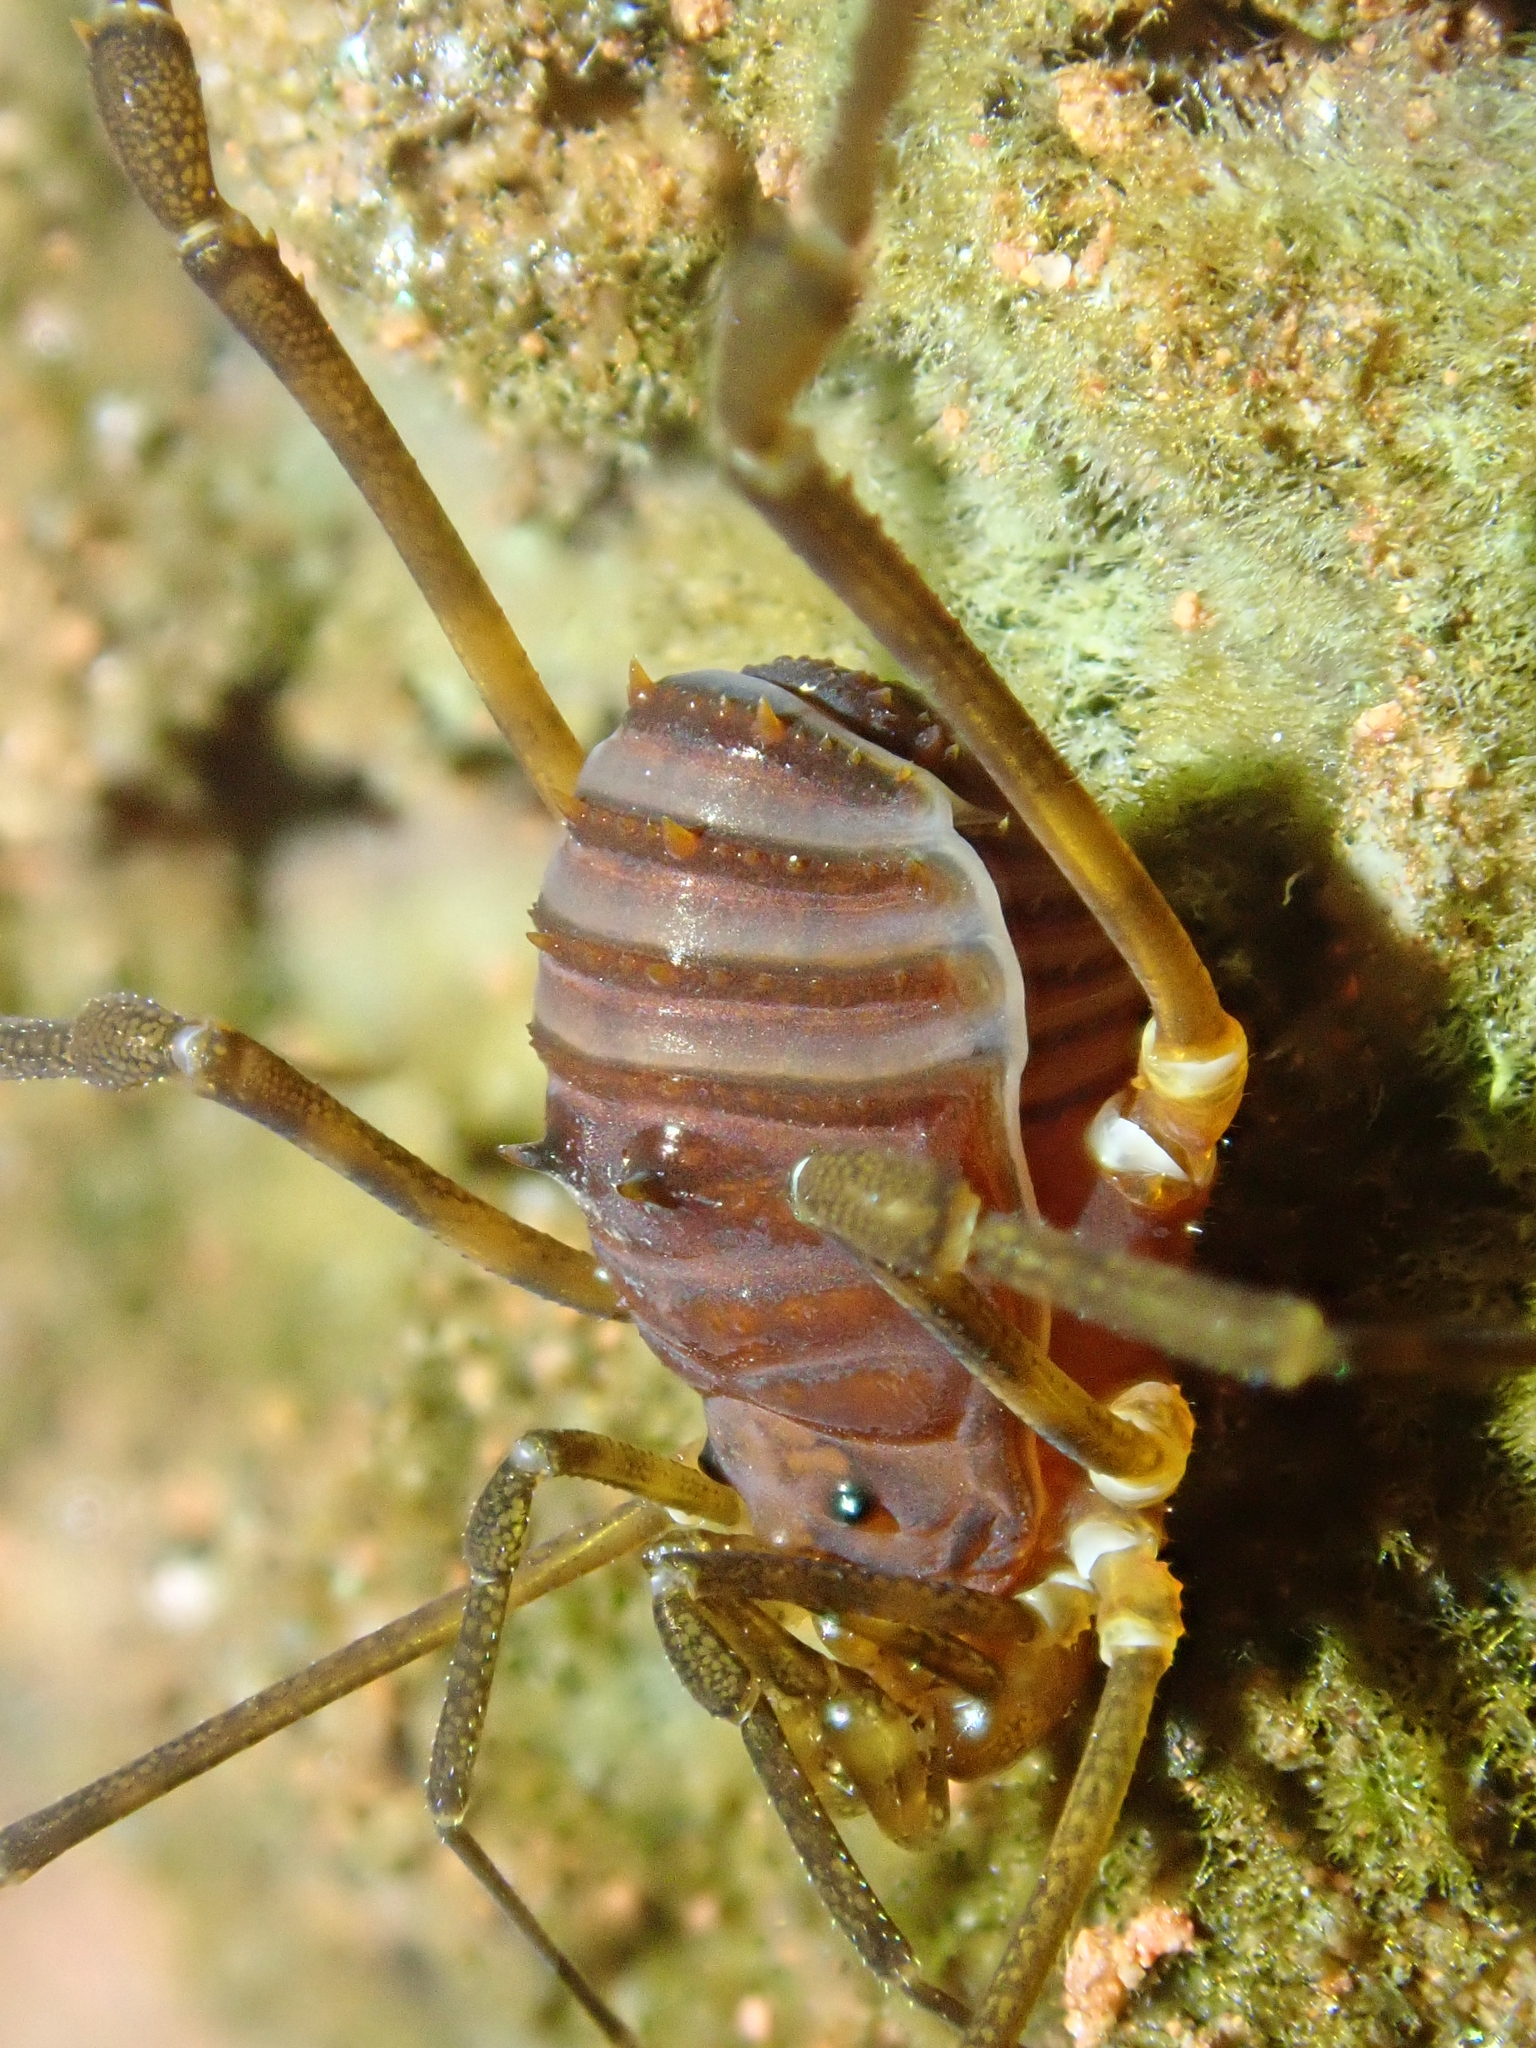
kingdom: Animalia
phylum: Arthropoda
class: Arachnida
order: Opiliones
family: Stygnidae
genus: Stygnus
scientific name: Stygnus luteus
